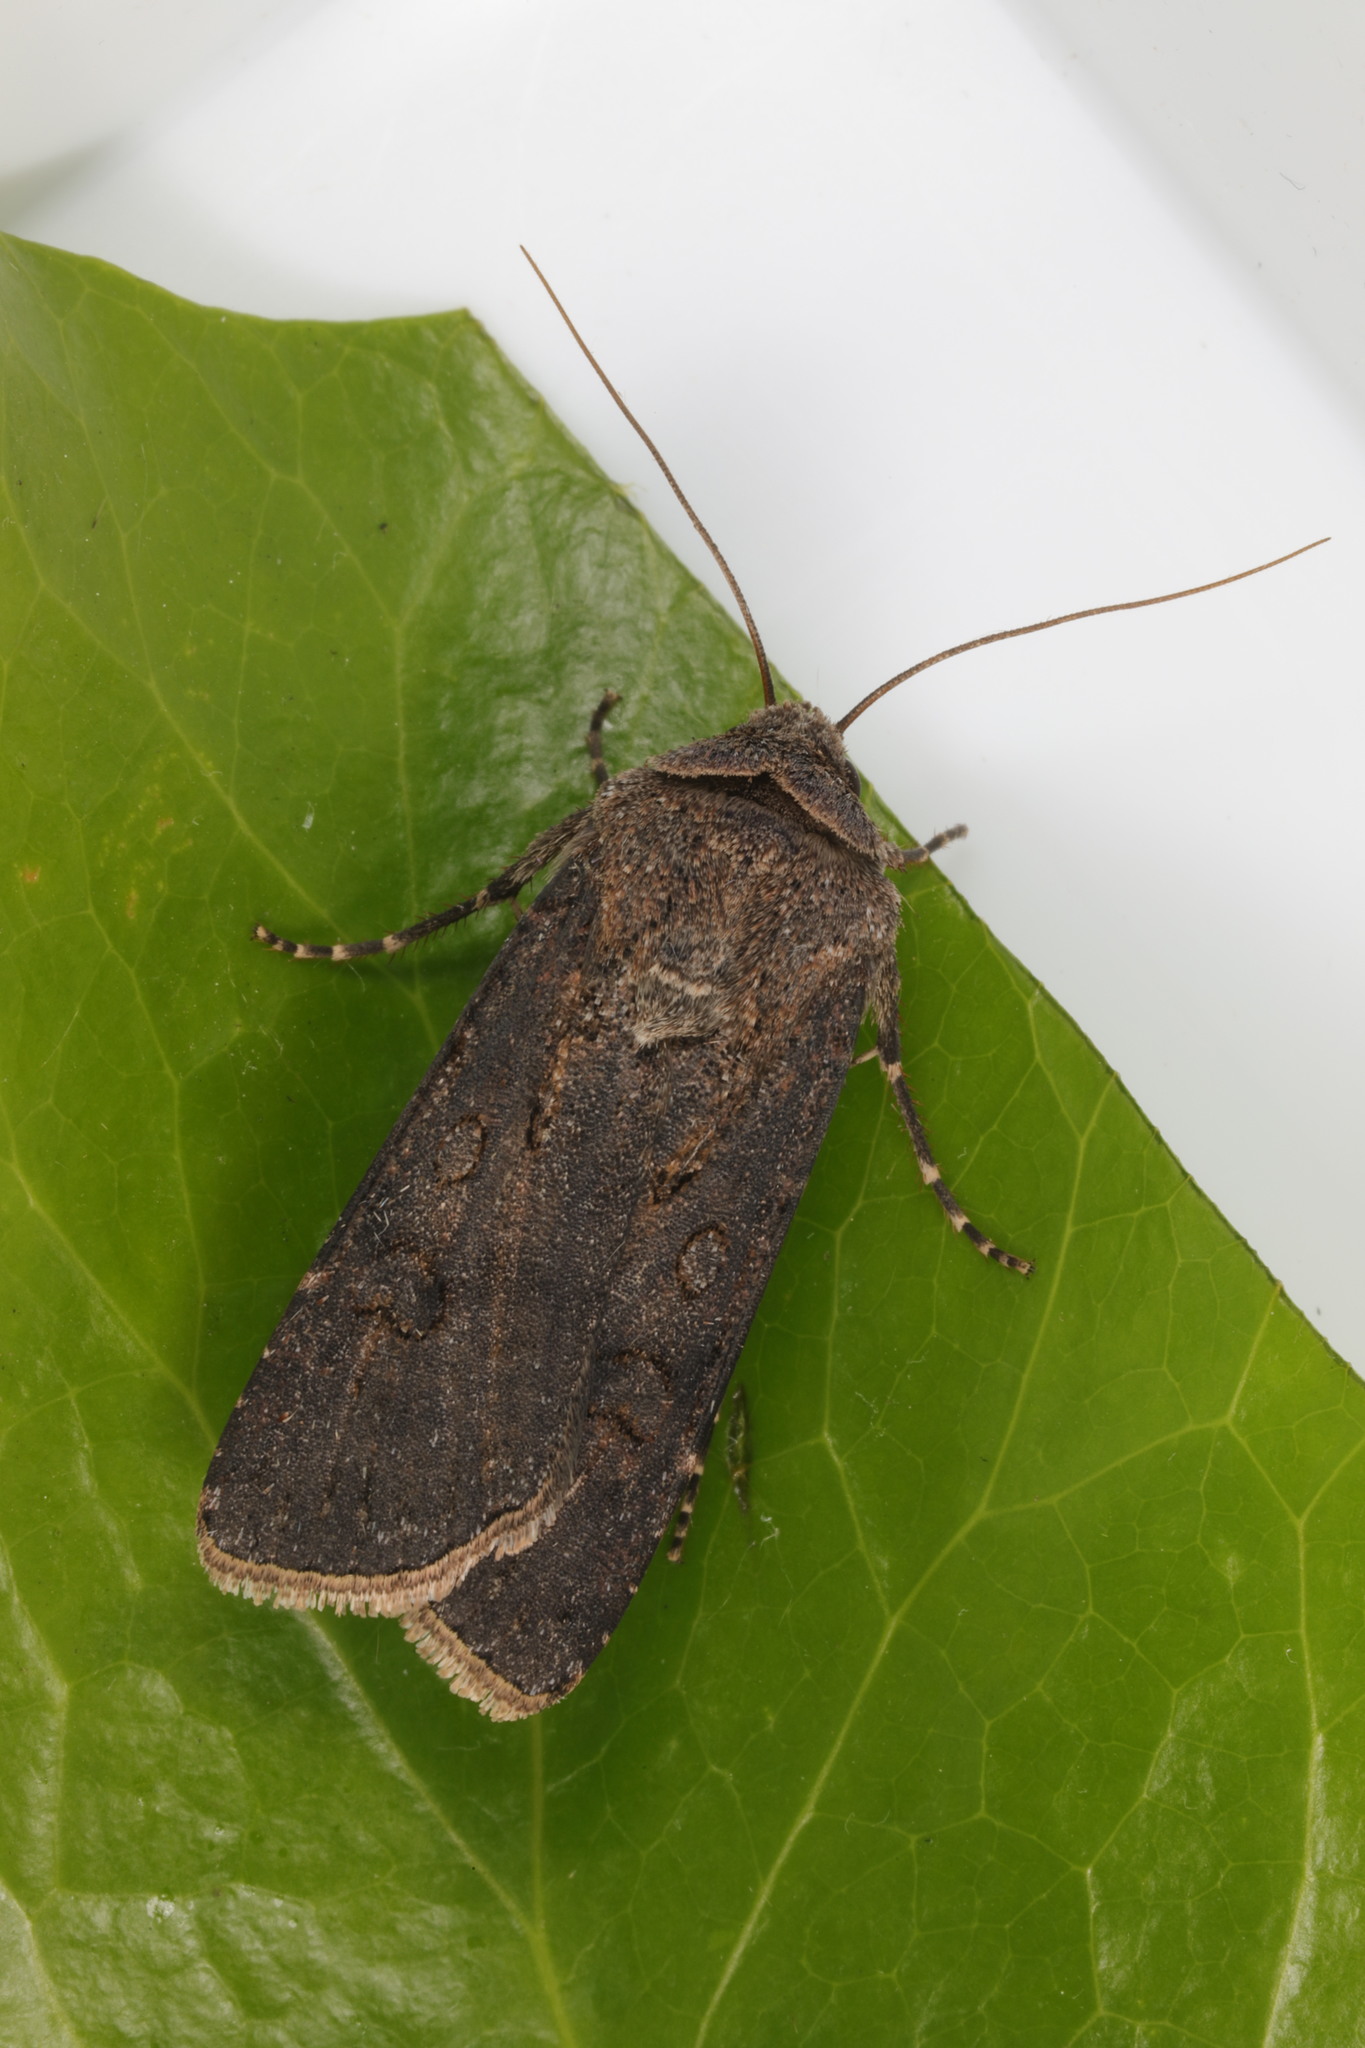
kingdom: Animalia
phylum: Arthropoda
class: Insecta
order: Lepidoptera
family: Noctuidae
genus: Agrotis
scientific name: Agrotis segetum
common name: Turnip moth
